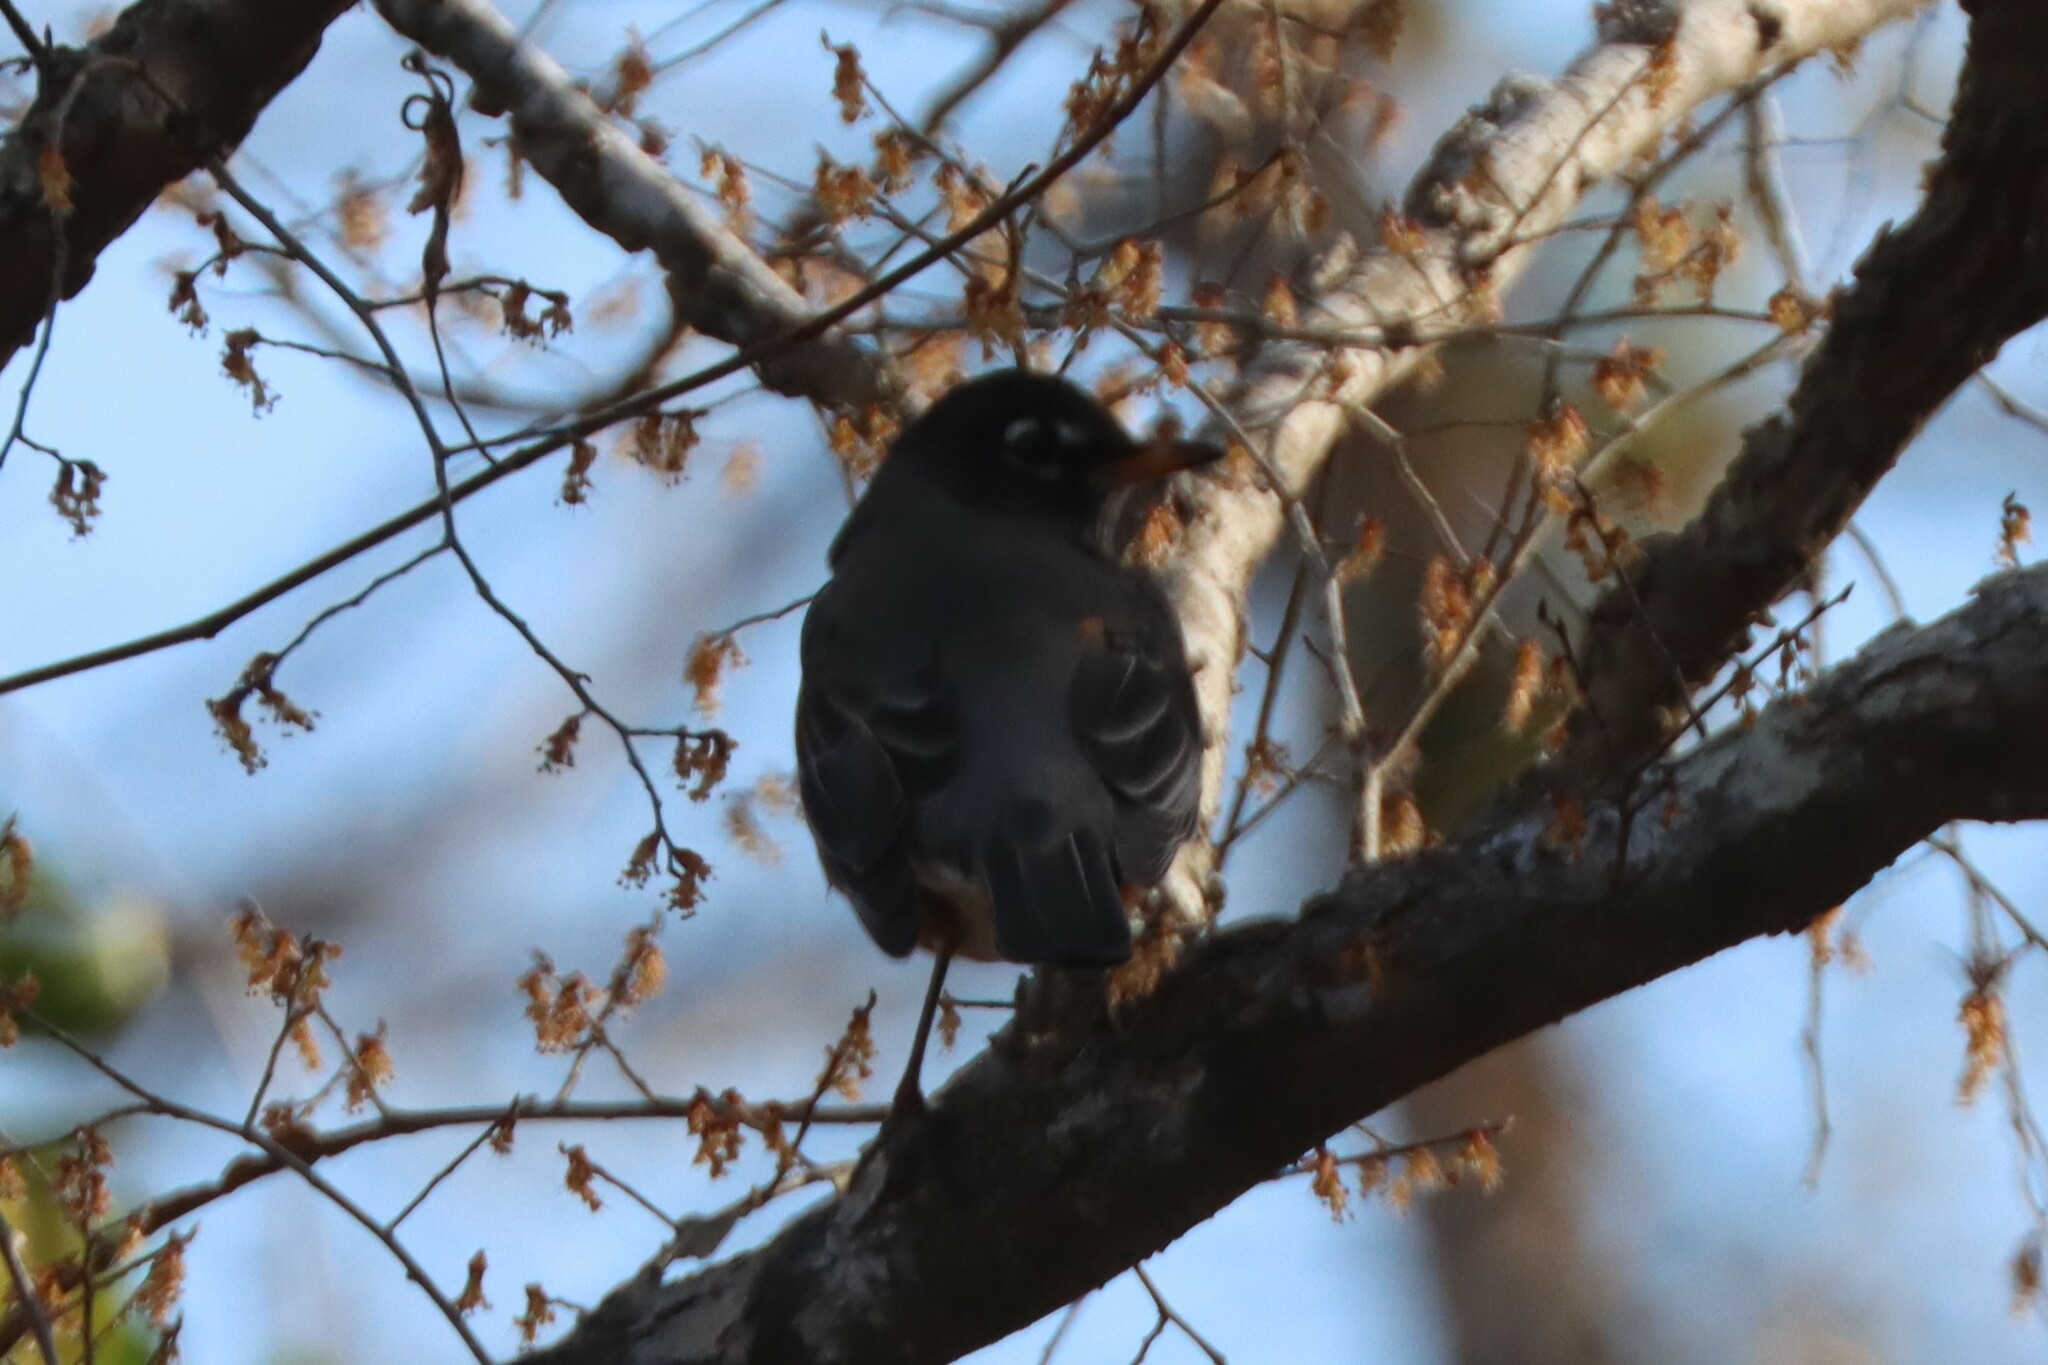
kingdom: Animalia
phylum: Chordata
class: Aves
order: Passeriformes
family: Turdidae
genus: Turdus
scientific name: Turdus migratorius
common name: American robin
